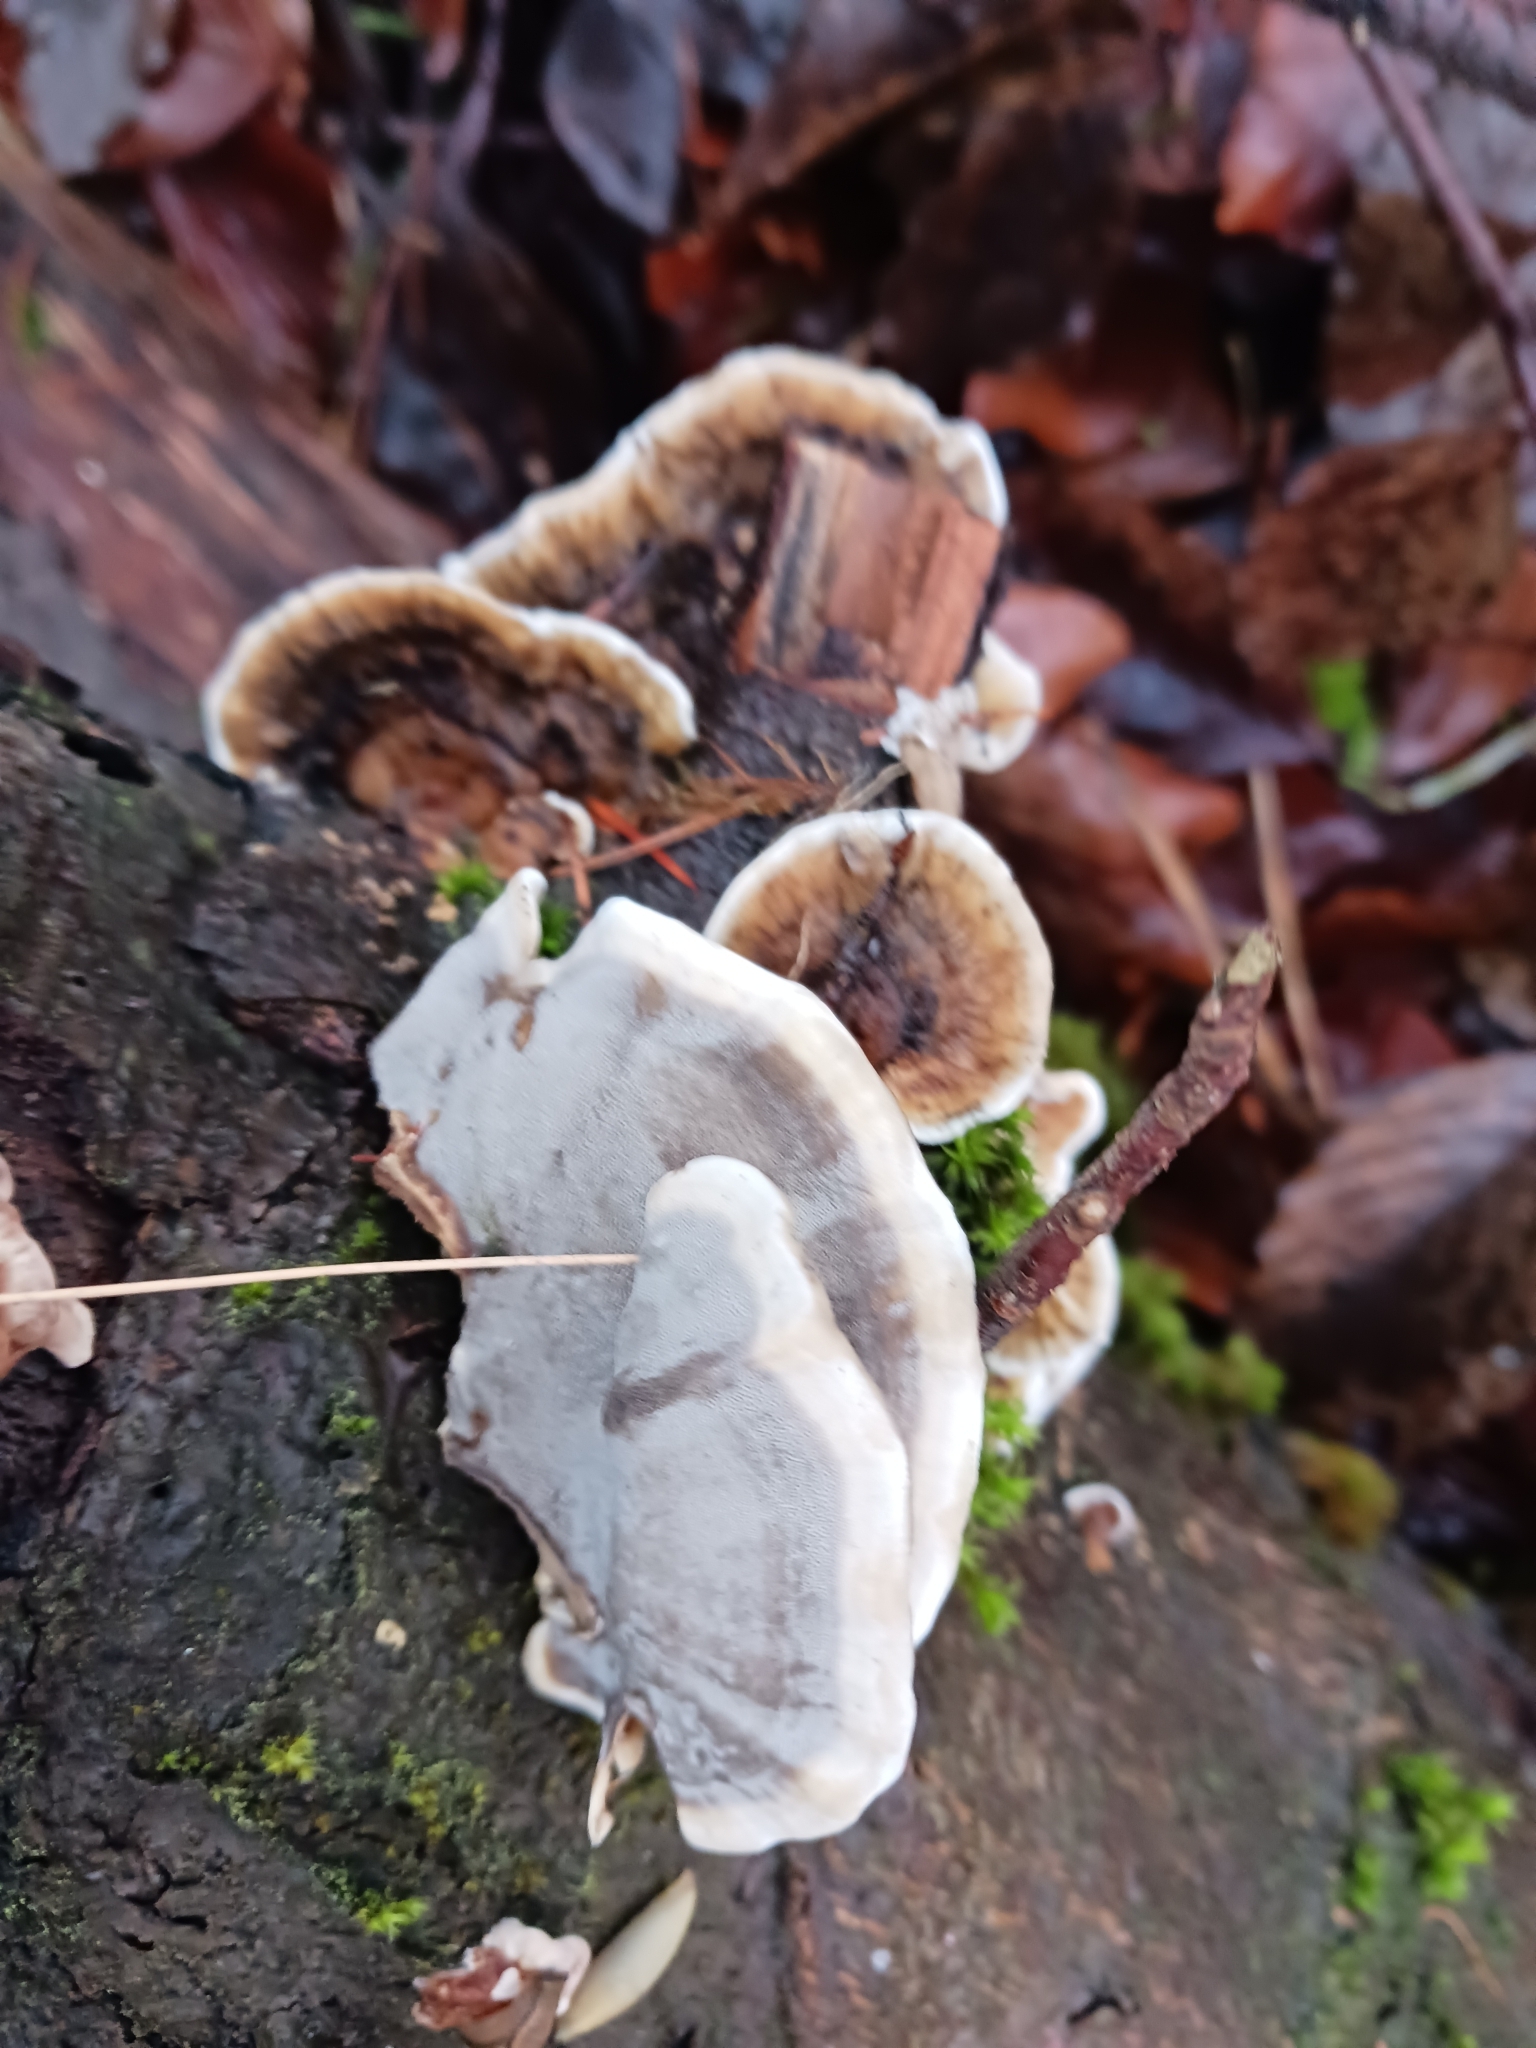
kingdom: Fungi
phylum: Basidiomycota
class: Agaricomycetes
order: Polyporales
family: Phanerochaetaceae
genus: Bjerkandera
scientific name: Bjerkandera adusta
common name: Smoky bracket
